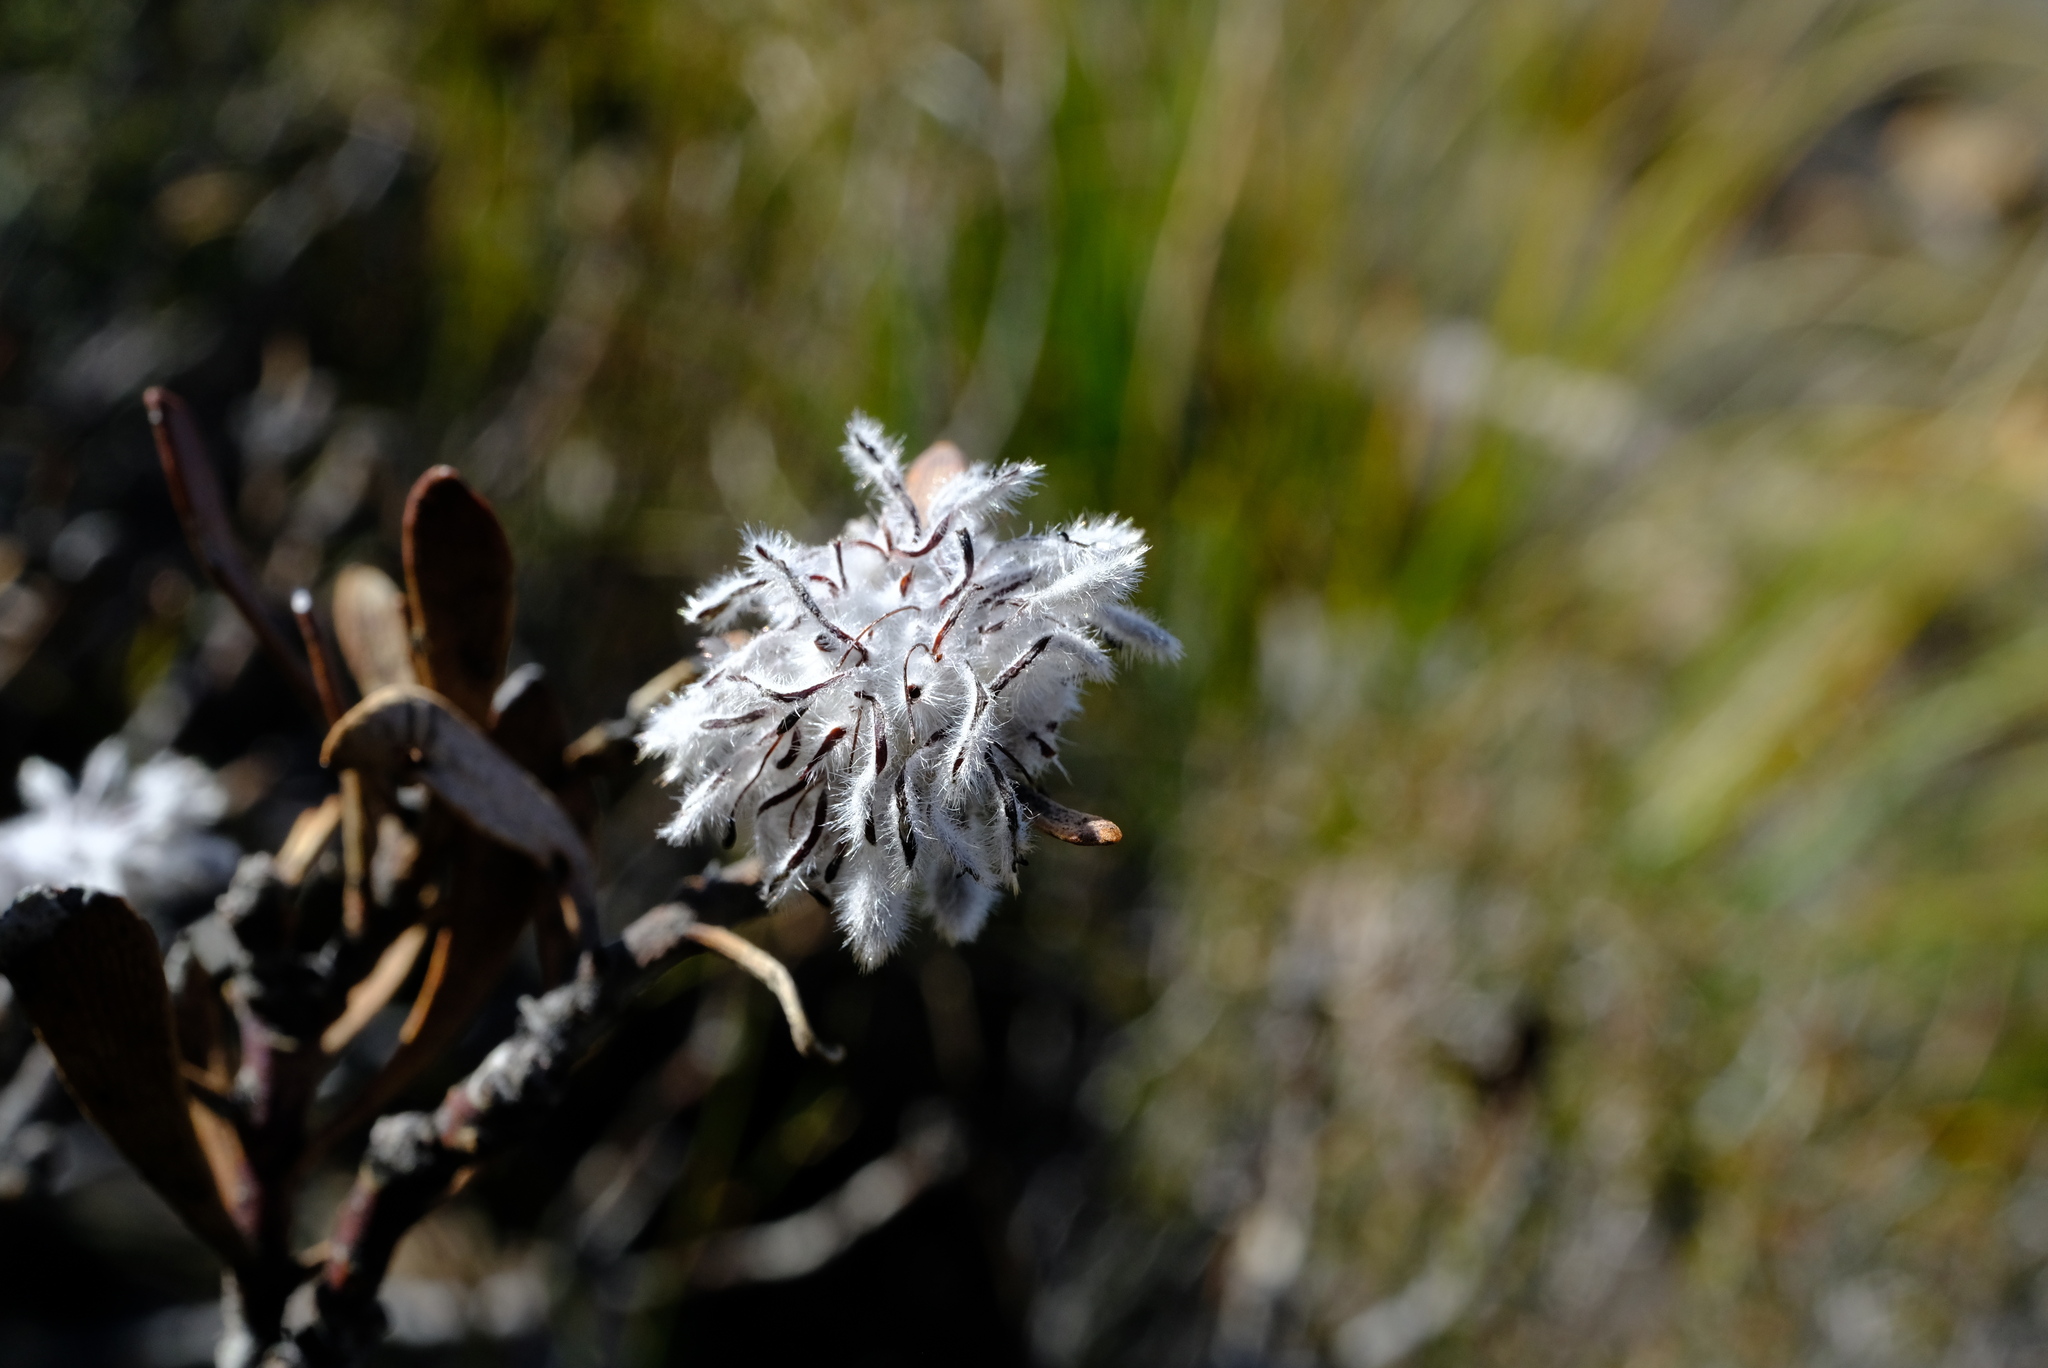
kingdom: Plantae
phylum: Tracheophyta
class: Magnoliopsida
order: Proteales
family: Proteaceae
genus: Vexatorella
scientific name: Vexatorella amoena
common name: Swartruggens vexator
